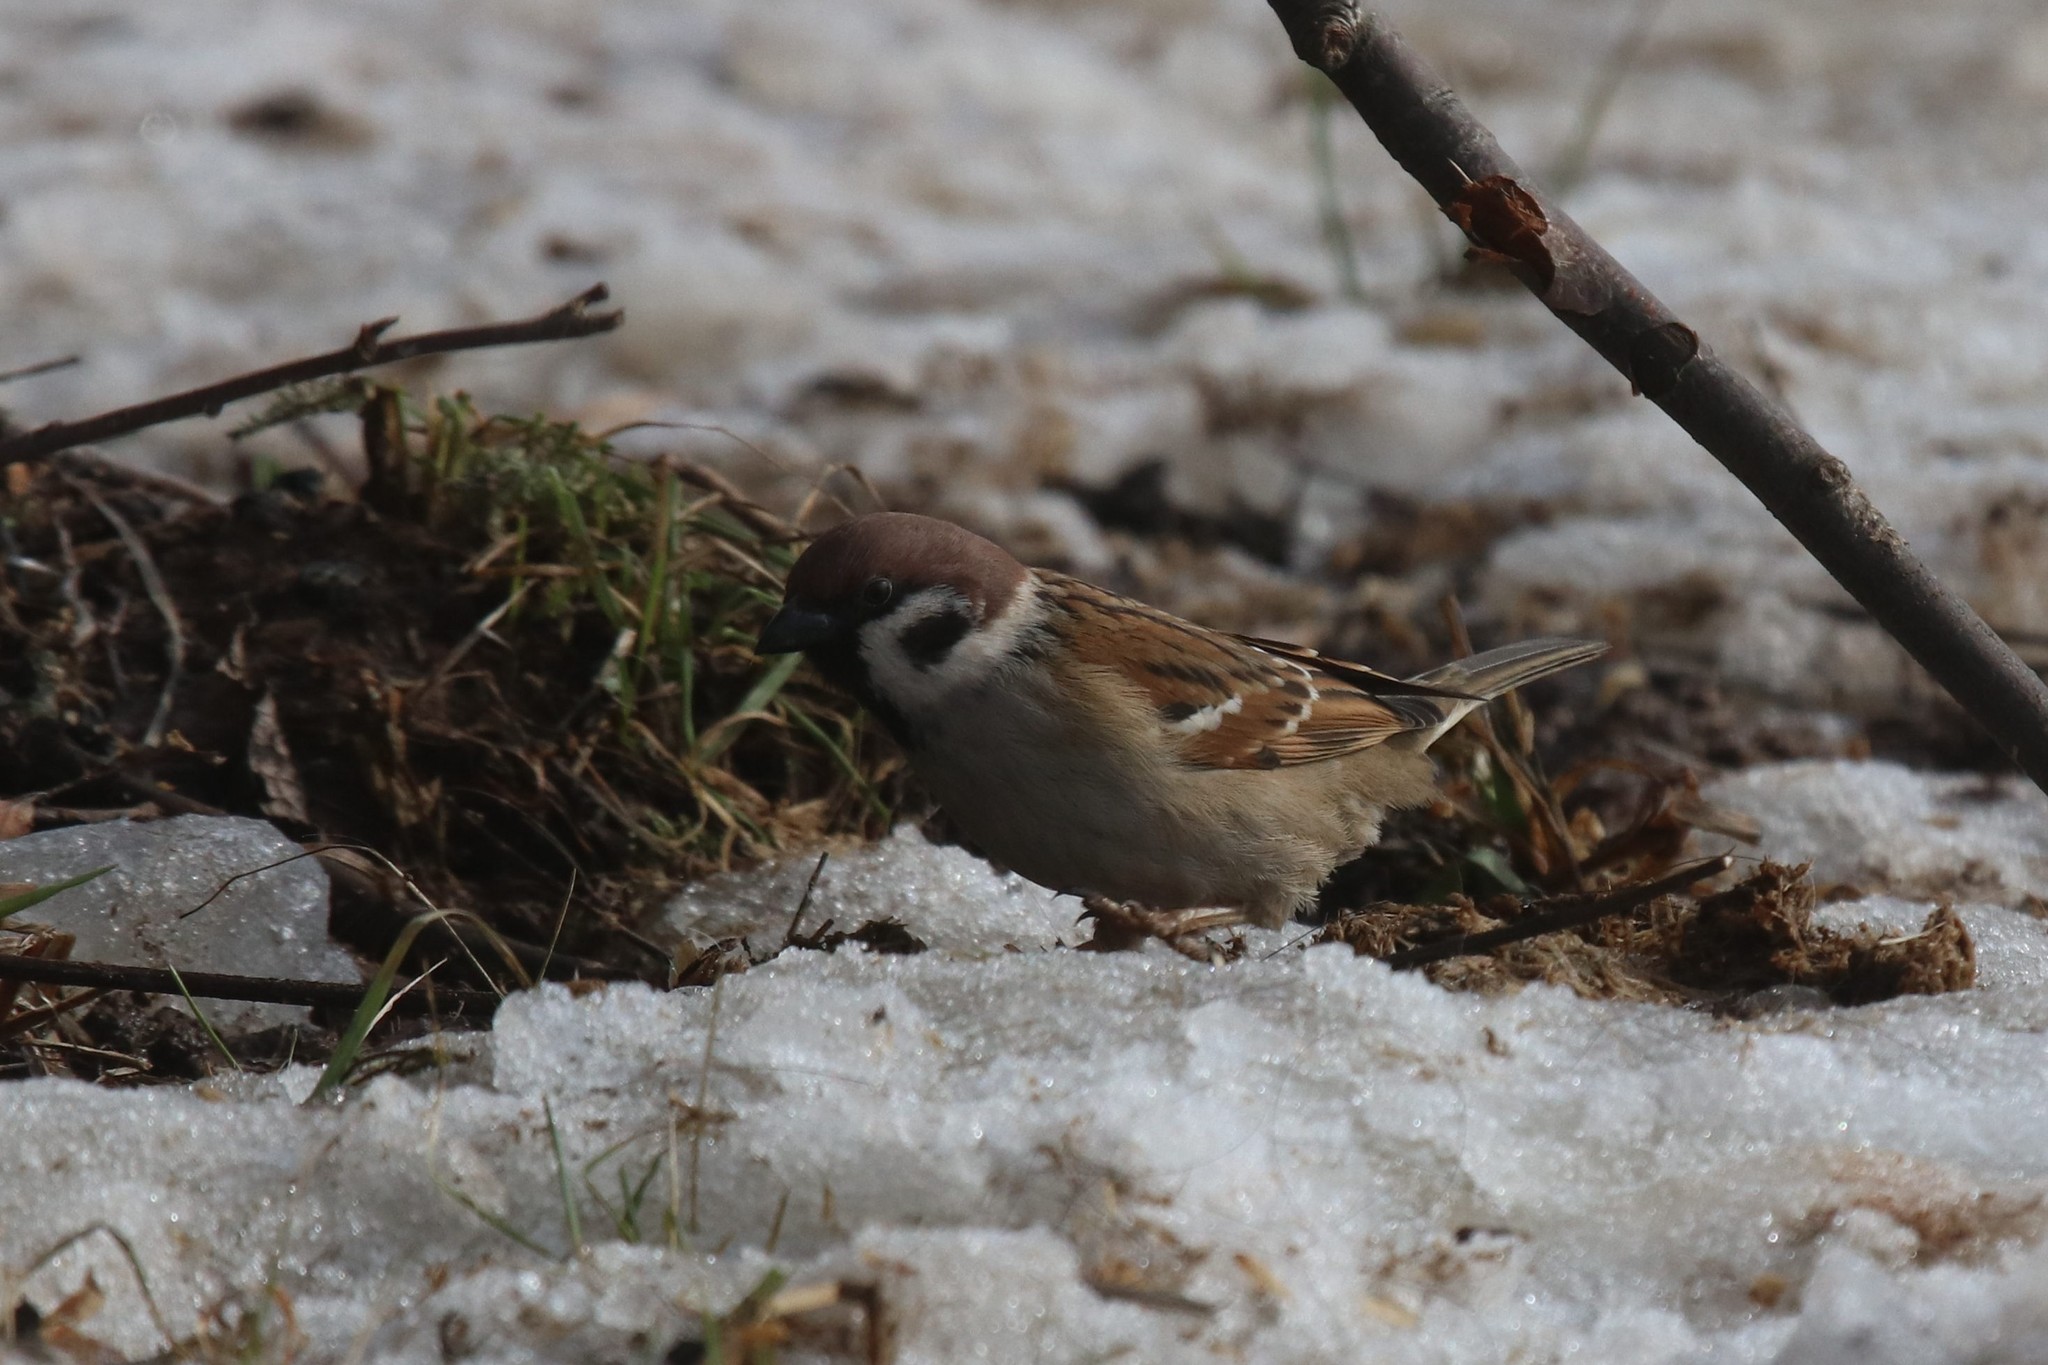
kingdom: Animalia
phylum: Chordata
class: Aves
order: Passeriformes
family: Passeridae
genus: Passer
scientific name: Passer montanus
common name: Eurasian tree sparrow
